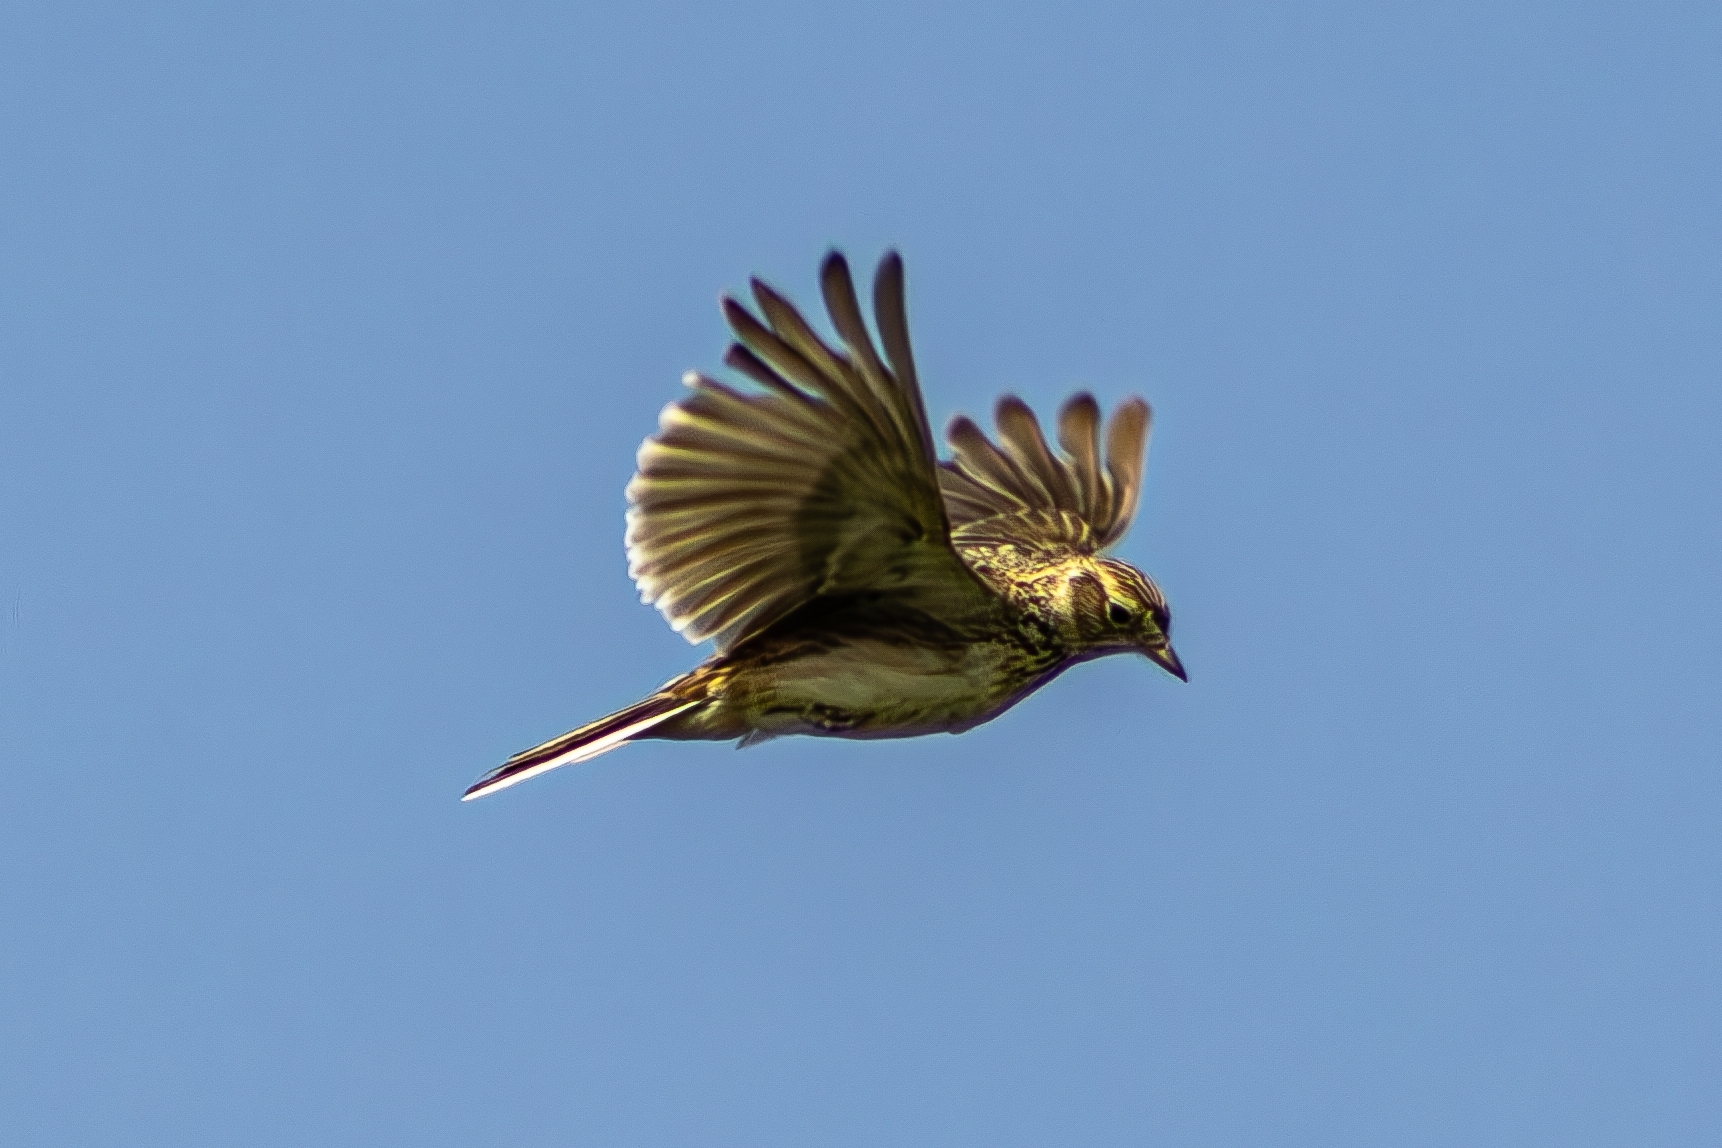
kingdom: Animalia
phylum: Chordata
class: Aves
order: Passeriformes
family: Alaudidae
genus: Alauda
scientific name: Alauda arvensis
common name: Eurasian skylark
